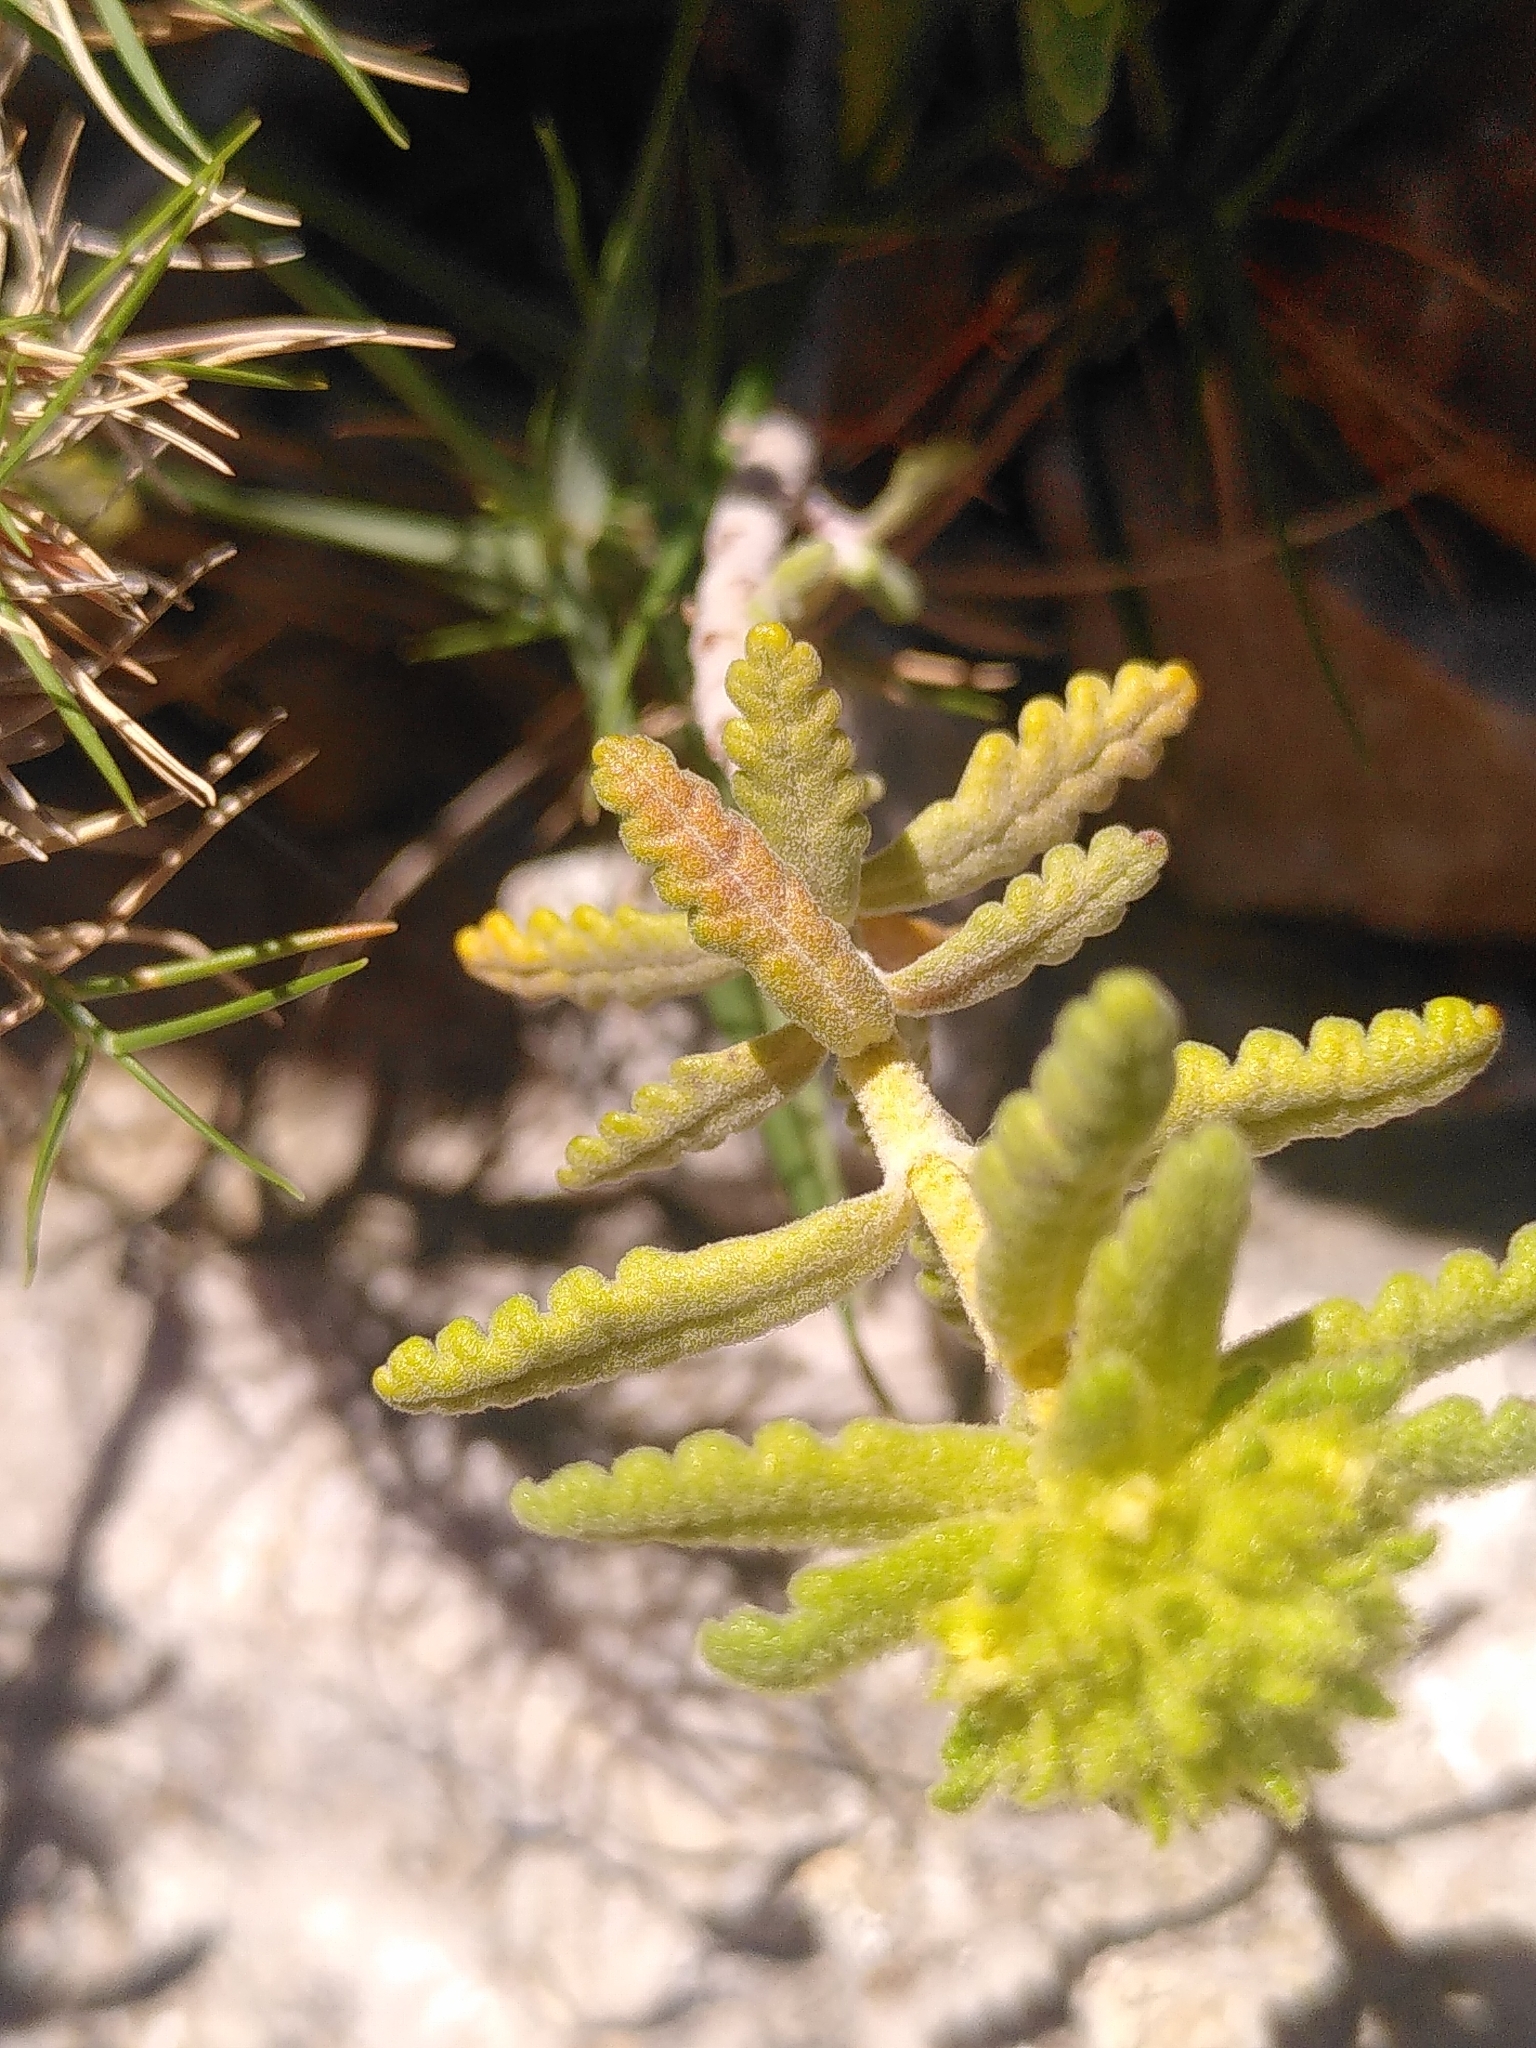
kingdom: Plantae
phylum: Tracheophyta
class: Magnoliopsida
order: Lamiales
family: Lamiaceae
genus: Teucrium
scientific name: Teucrium aureum
